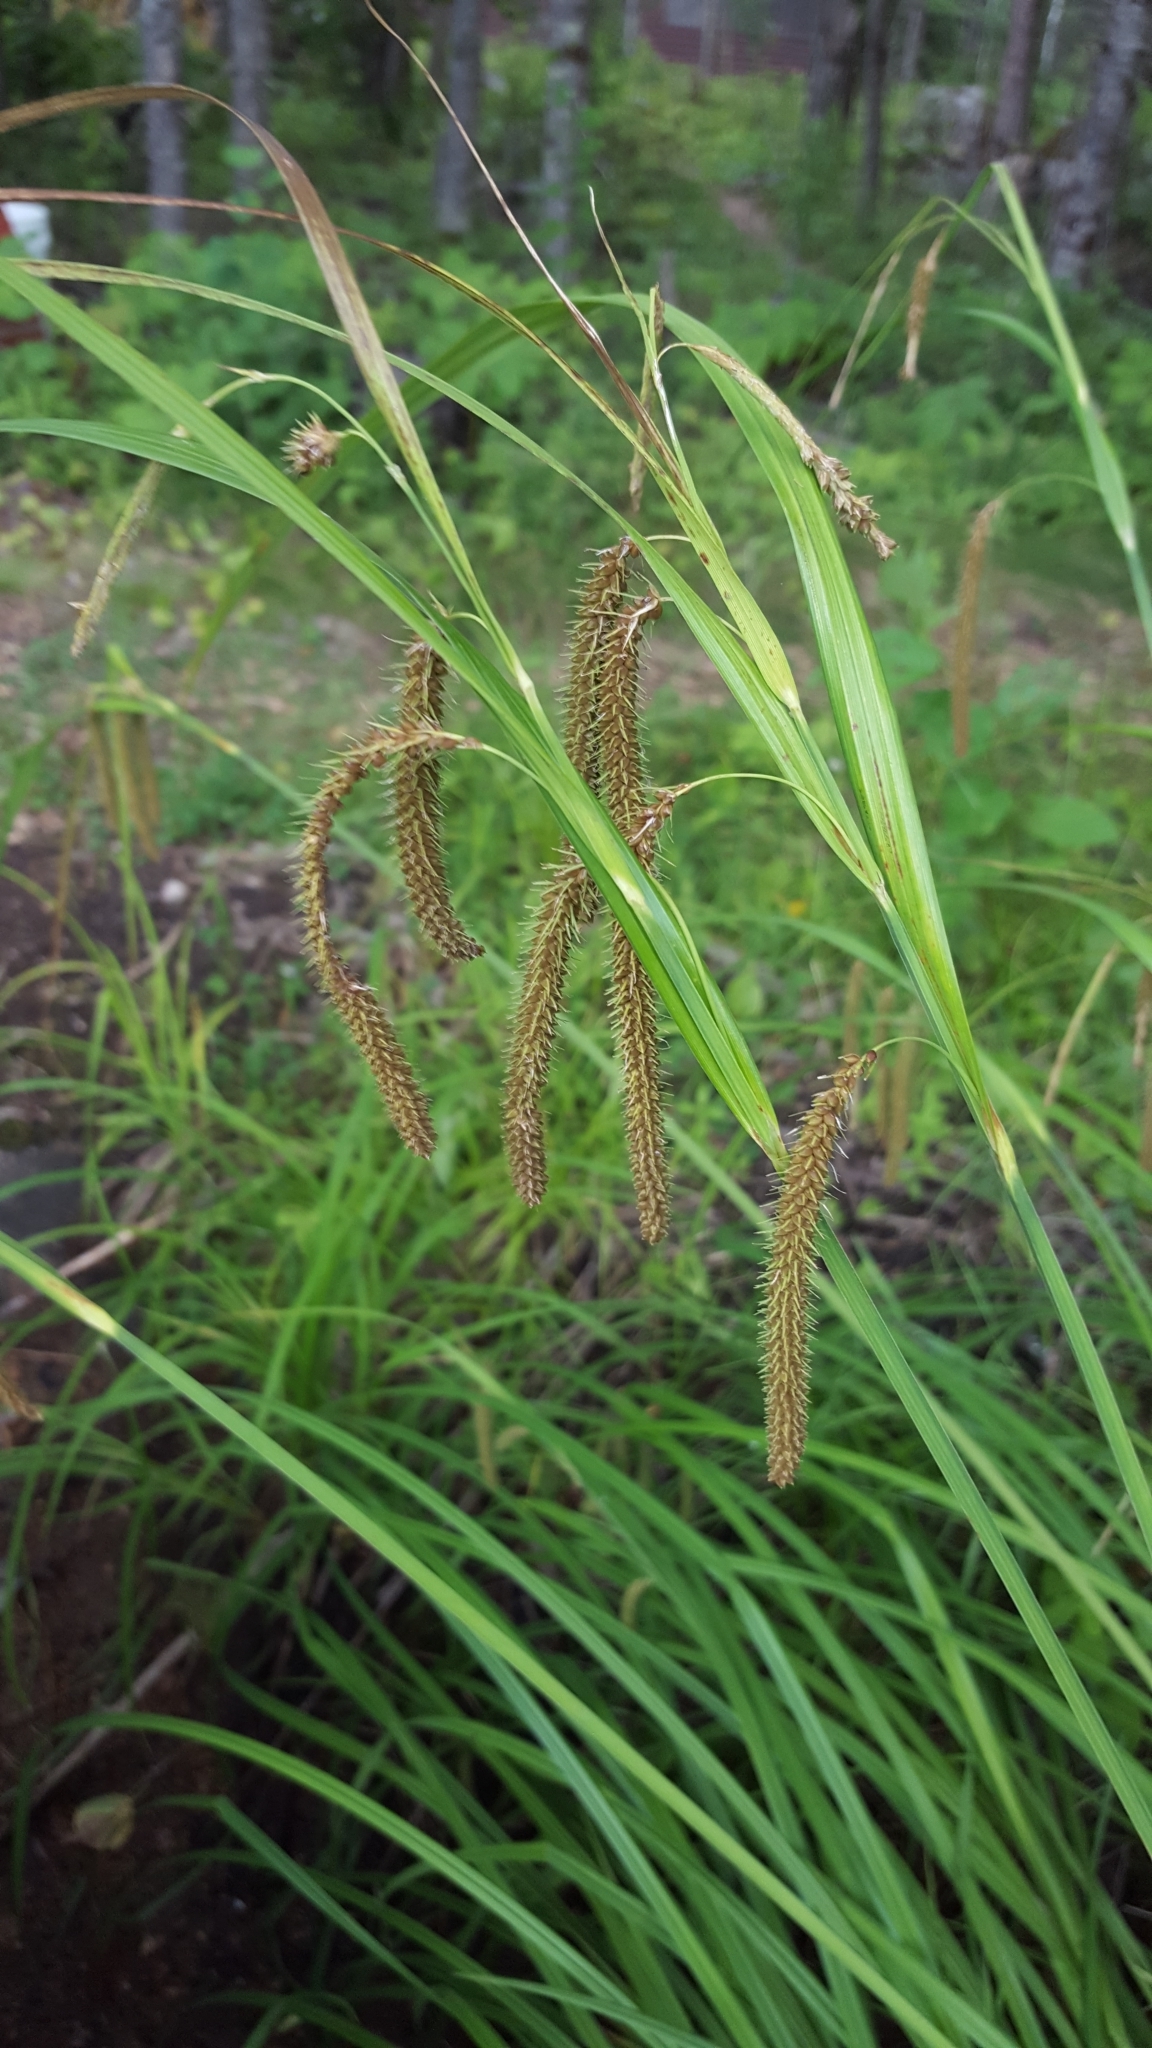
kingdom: Plantae
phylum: Tracheophyta
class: Liliopsida
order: Poales
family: Cyperaceae
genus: Carex
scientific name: Carex crinita
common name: Fringed sedge
